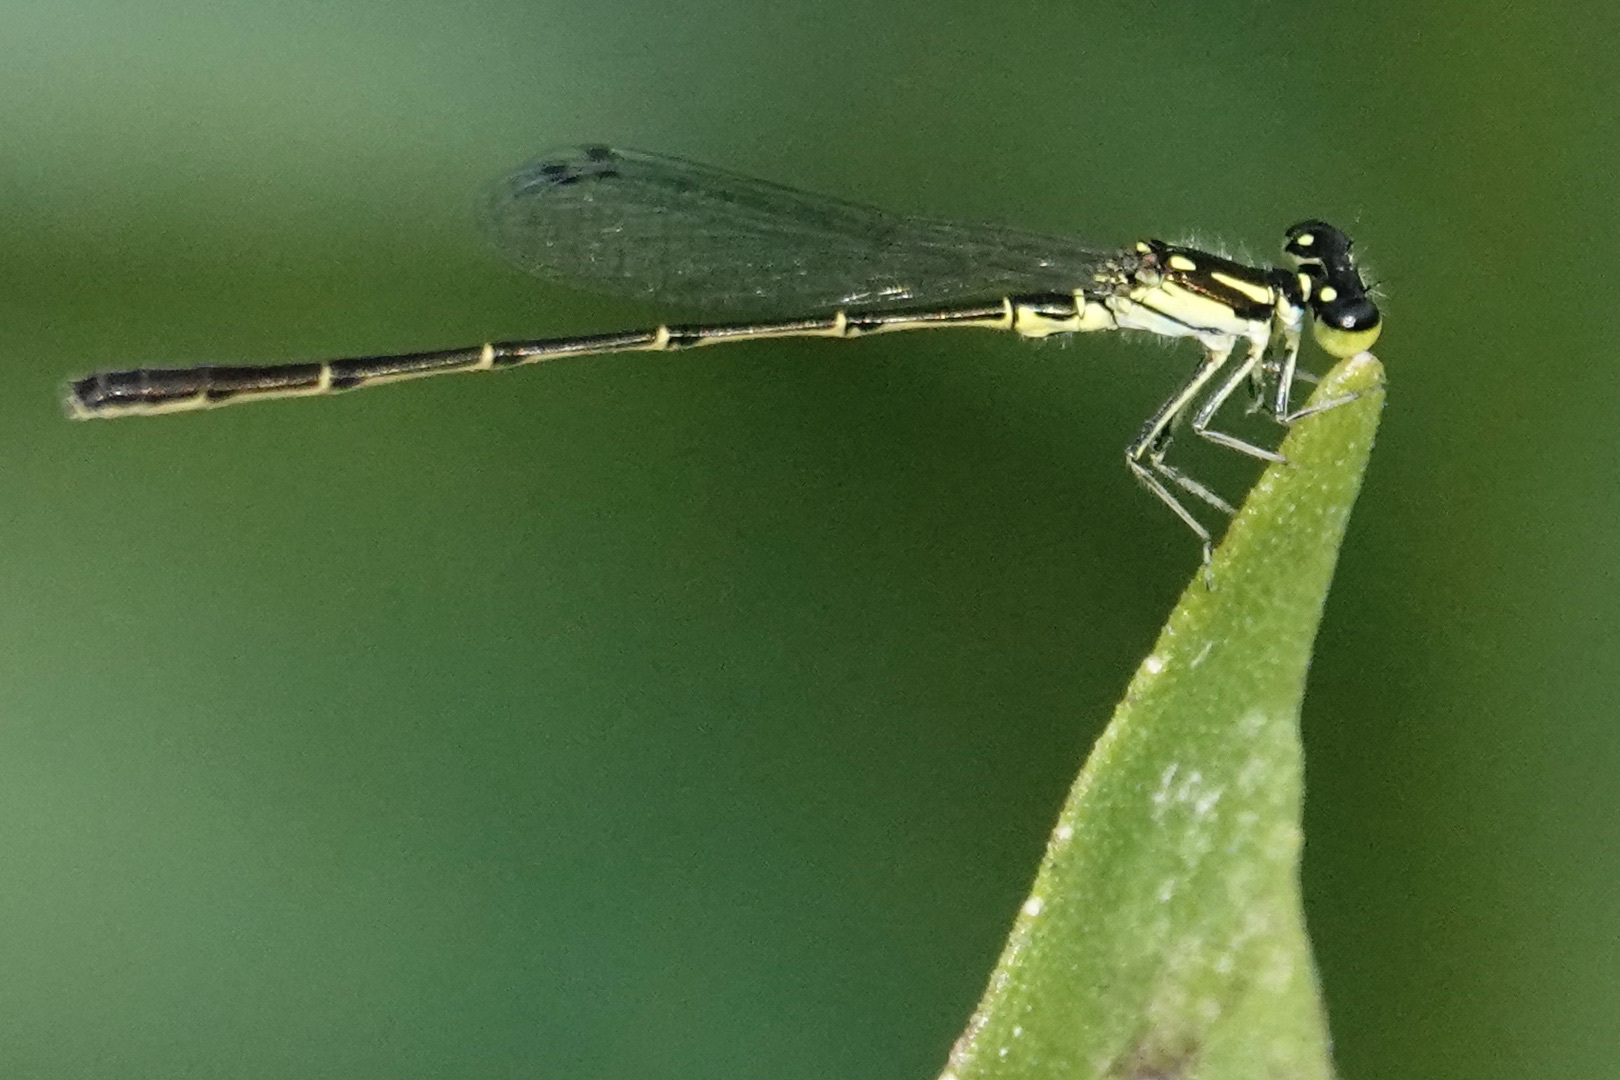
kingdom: Animalia
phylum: Arthropoda
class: Insecta
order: Odonata
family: Coenagrionidae
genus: Ischnura
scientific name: Ischnura posita
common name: Fragile forktail
